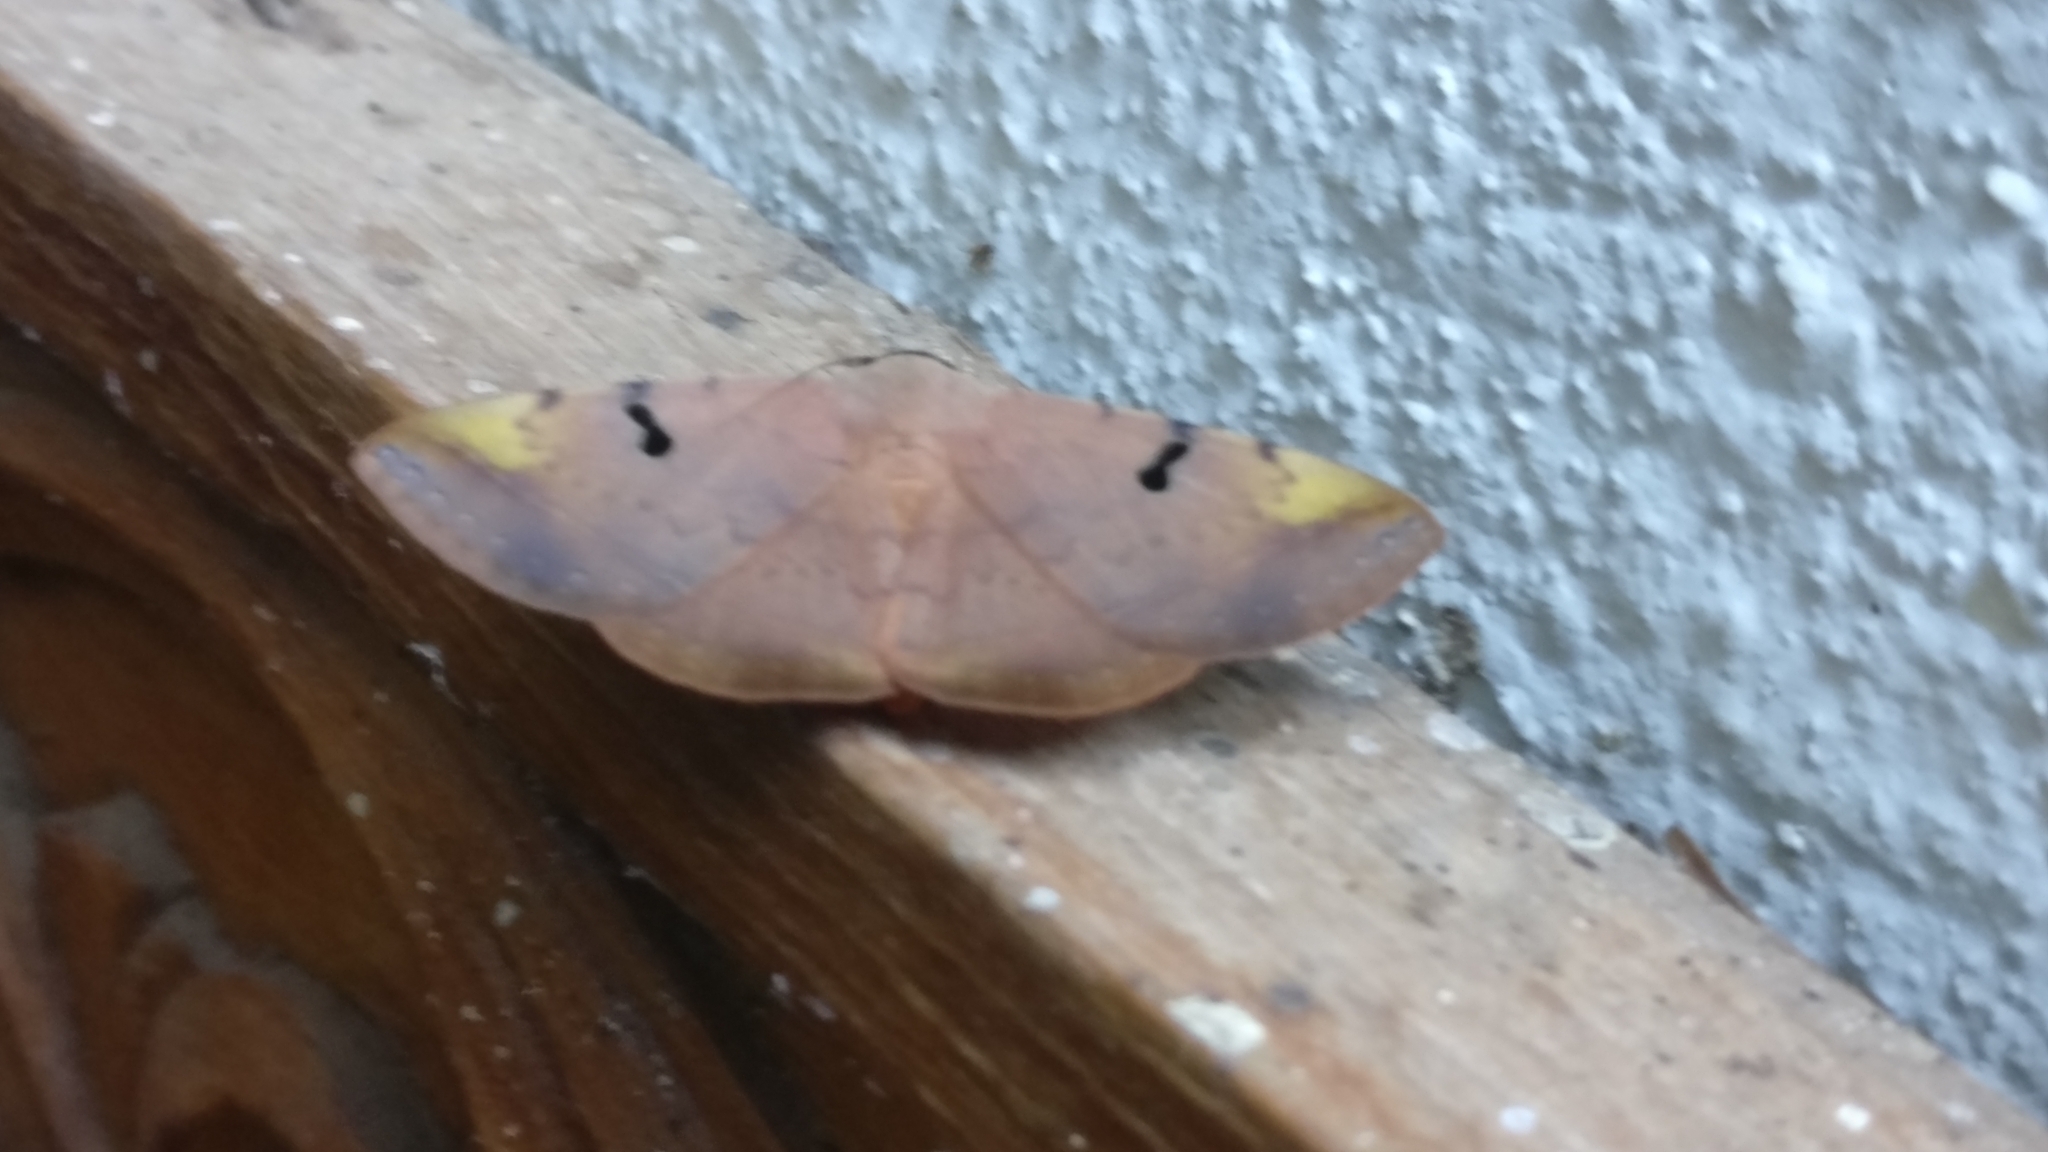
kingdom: Animalia
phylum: Arthropoda
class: Insecta
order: Lepidoptera
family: Erebidae
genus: Hypopyra
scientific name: Hypopyra meridionalis
